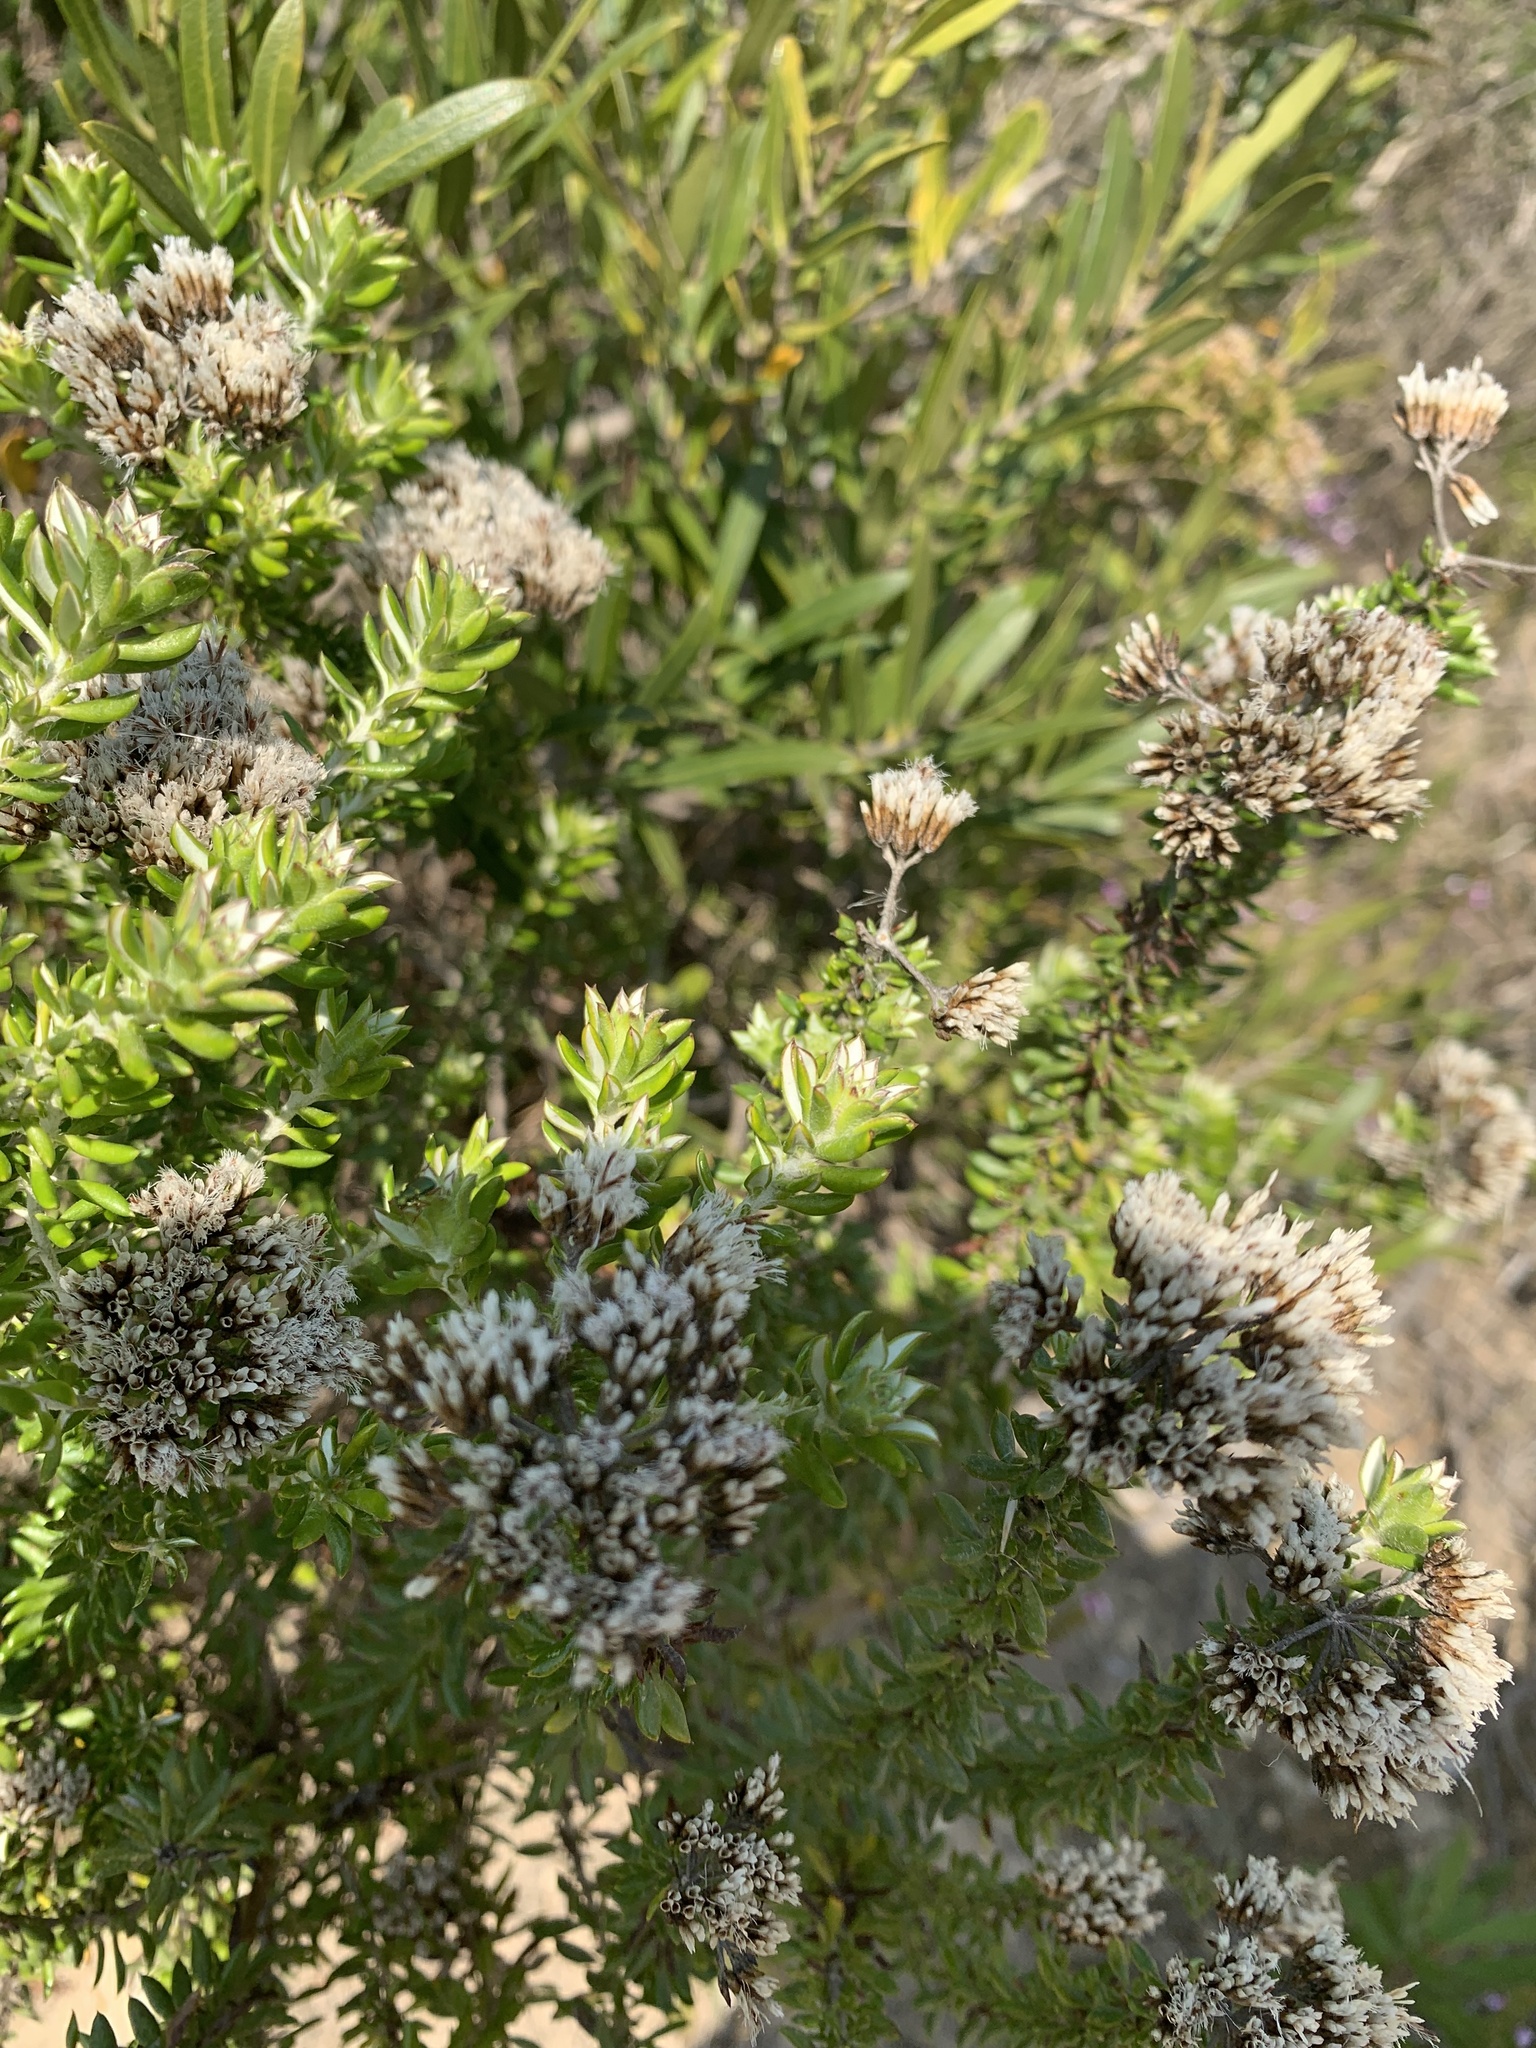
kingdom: Plantae
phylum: Tracheophyta
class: Magnoliopsida
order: Asterales
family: Asteraceae
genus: Metalasia
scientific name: Metalasia densa
